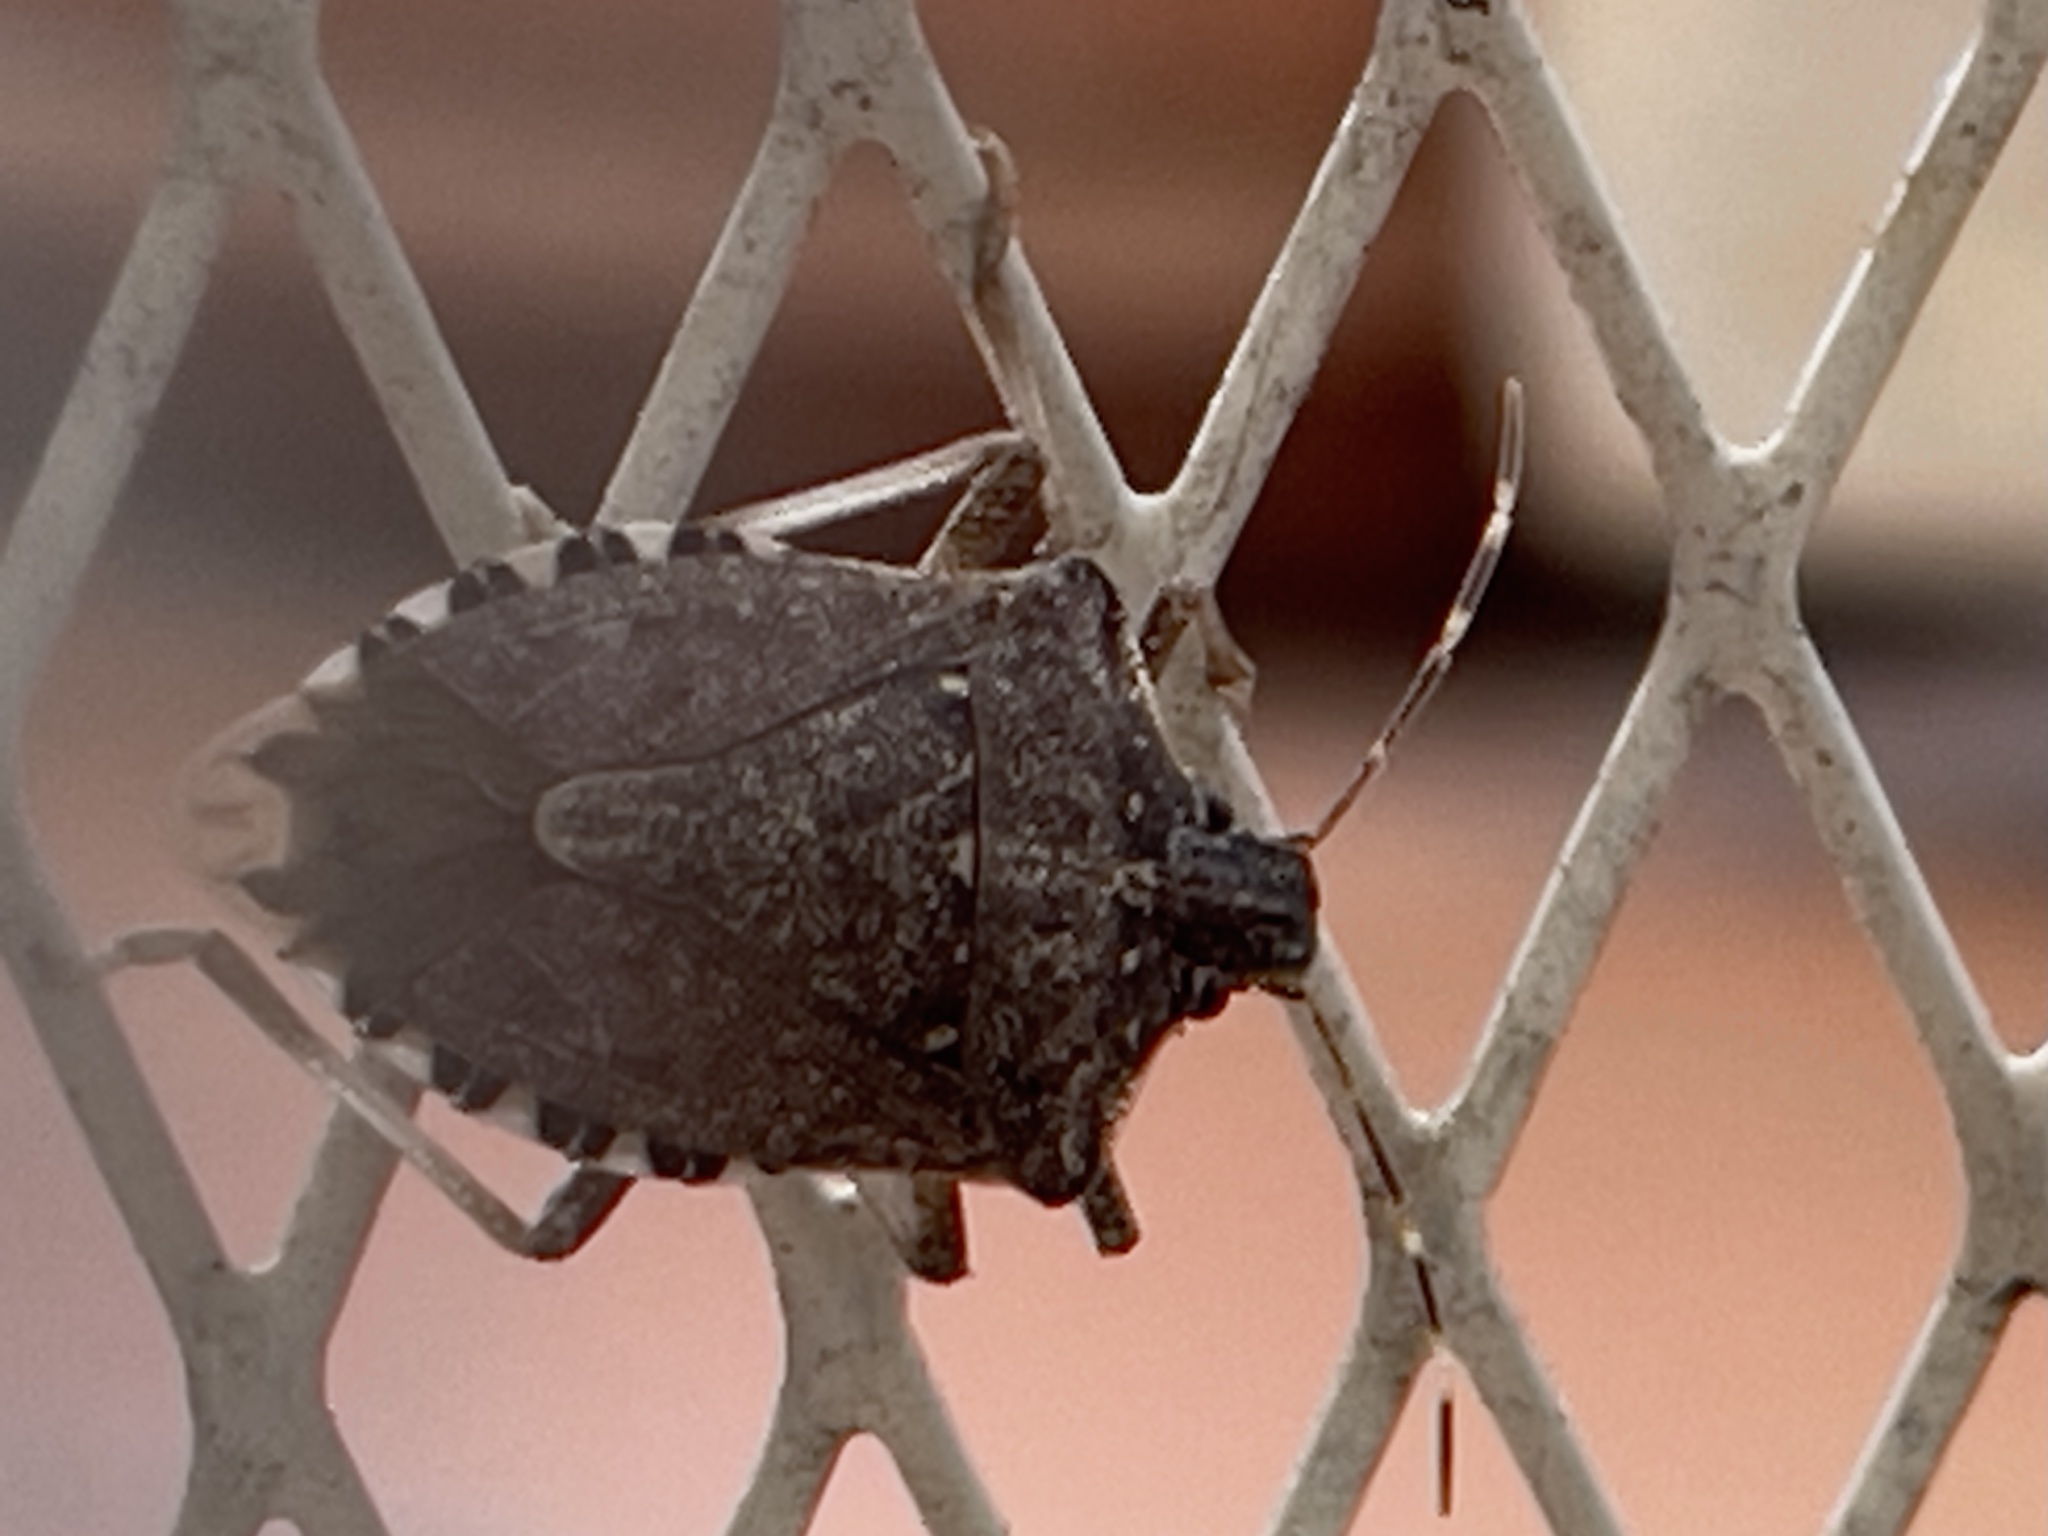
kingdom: Animalia
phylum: Arthropoda
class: Insecta
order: Hemiptera
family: Pentatomidae
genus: Halyomorpha
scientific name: Halyomorpha halys
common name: Brown marmorated stink bug
